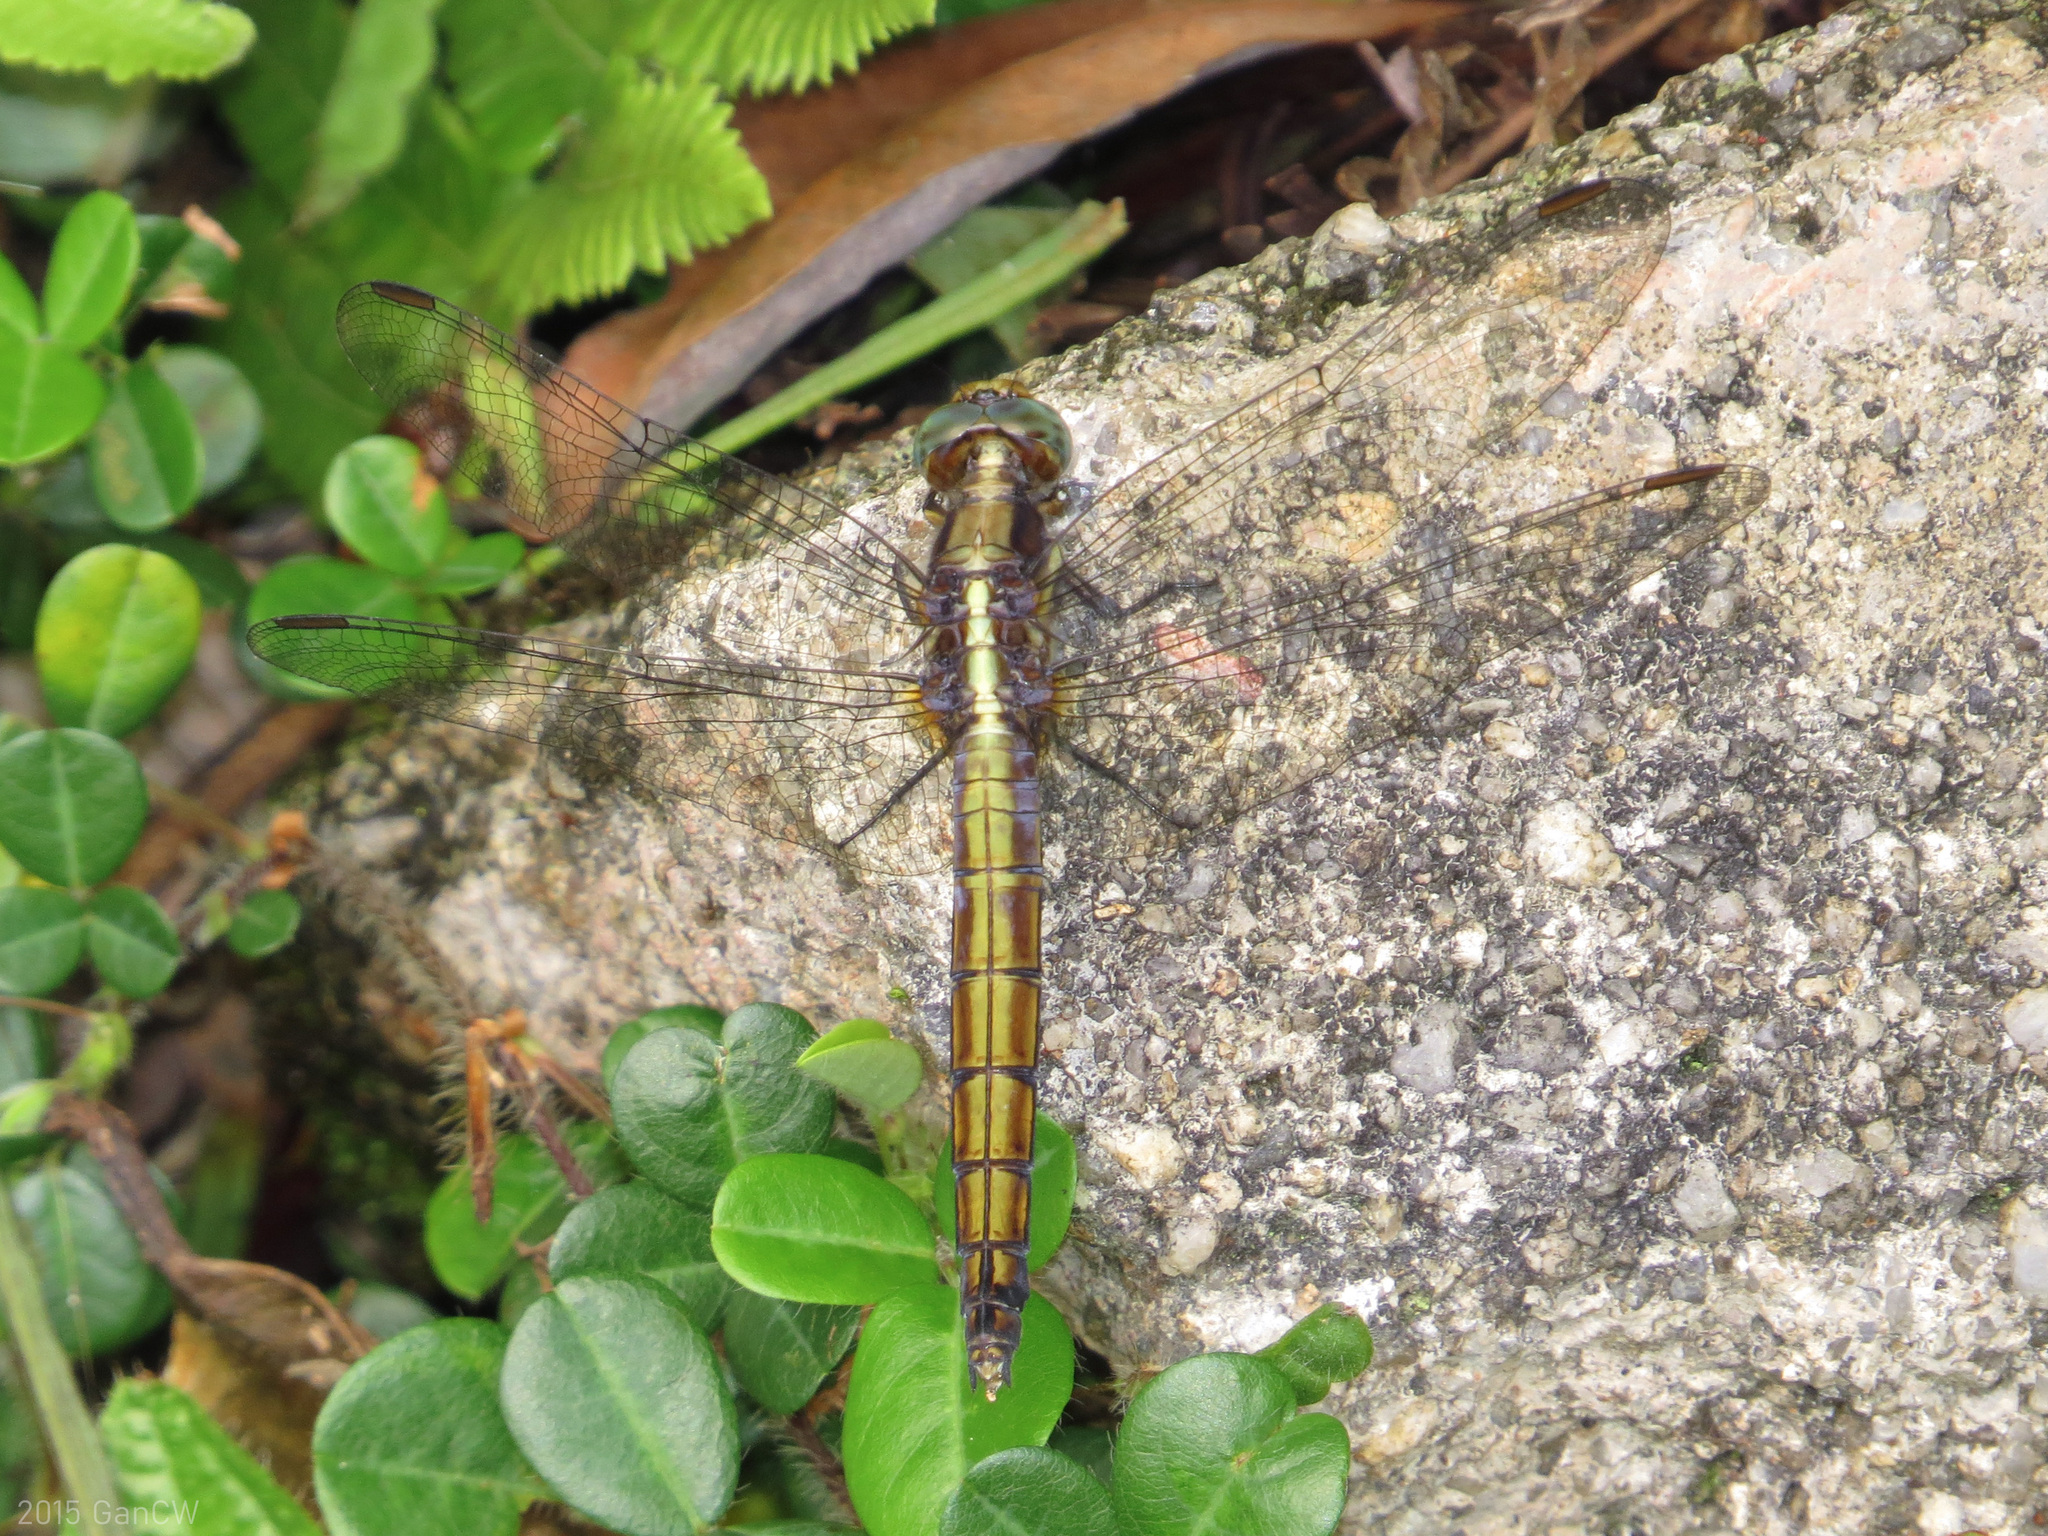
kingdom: Animalia
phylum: Arthropoda
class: Insecta
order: Odonata
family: Libellulidae
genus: Orthetrum
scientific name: Orthetrum glaucum
